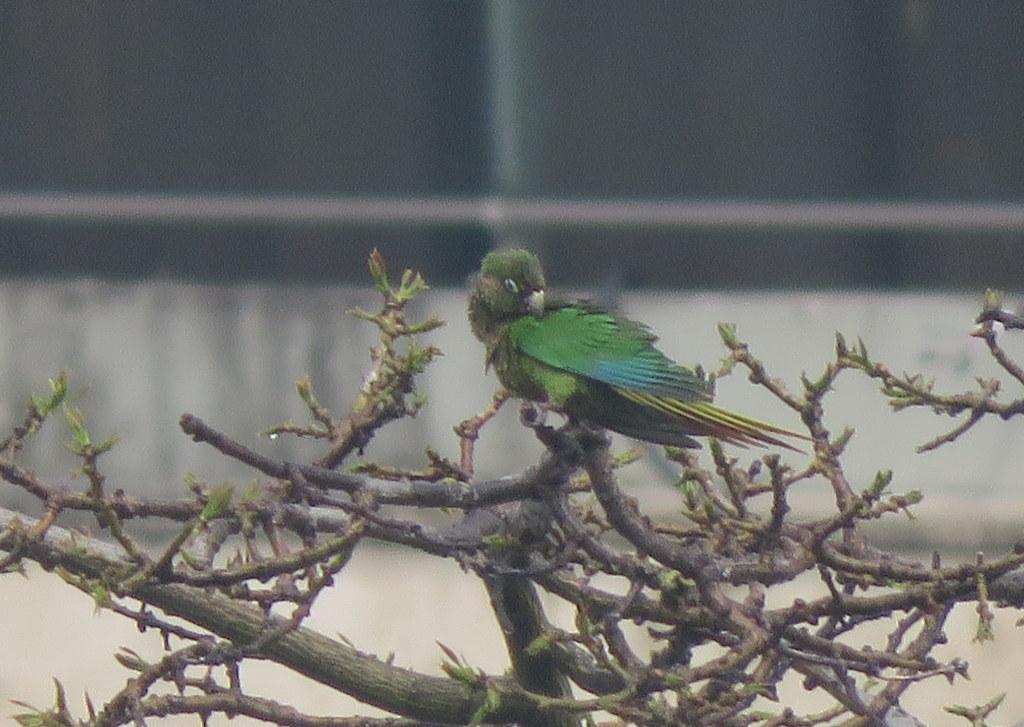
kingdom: Animalia
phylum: Chordata
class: Aves
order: Psittaciformes
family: Psittacidae
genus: Pyrrhura
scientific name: Pyrrhura frontalis
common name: Maroon-bellied parakeet
